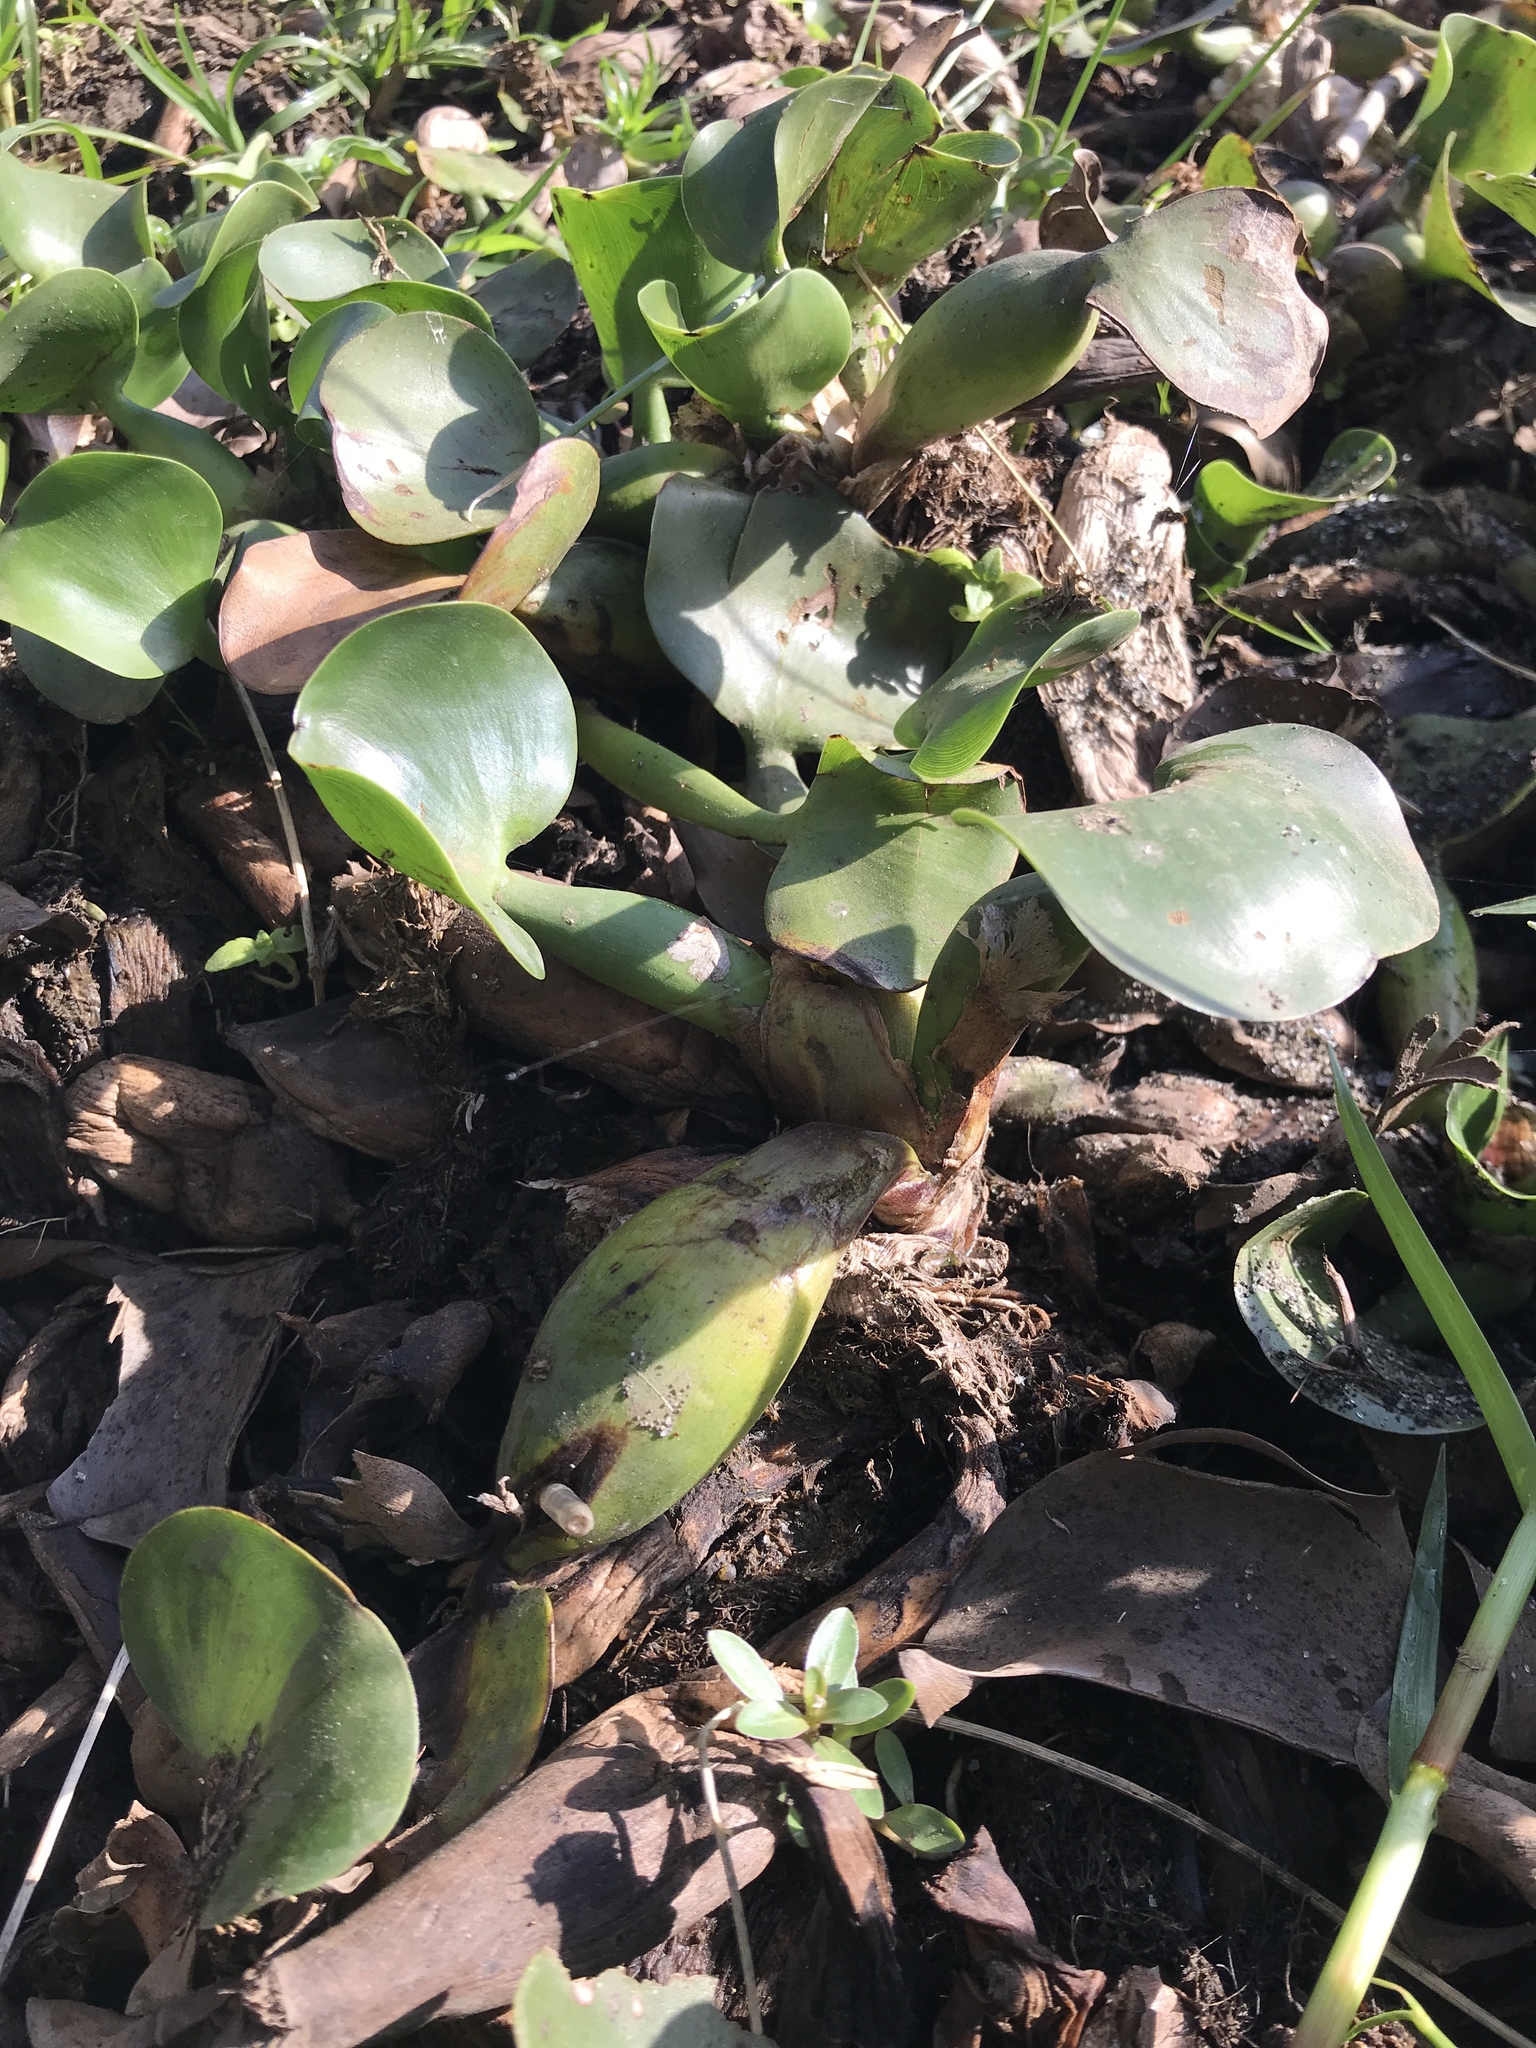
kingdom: Plantae
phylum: Tracheophyta
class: Liliopsida
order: Commelinales
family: Pontederiaceae
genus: Pontederia
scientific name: Pontederia crassipes
